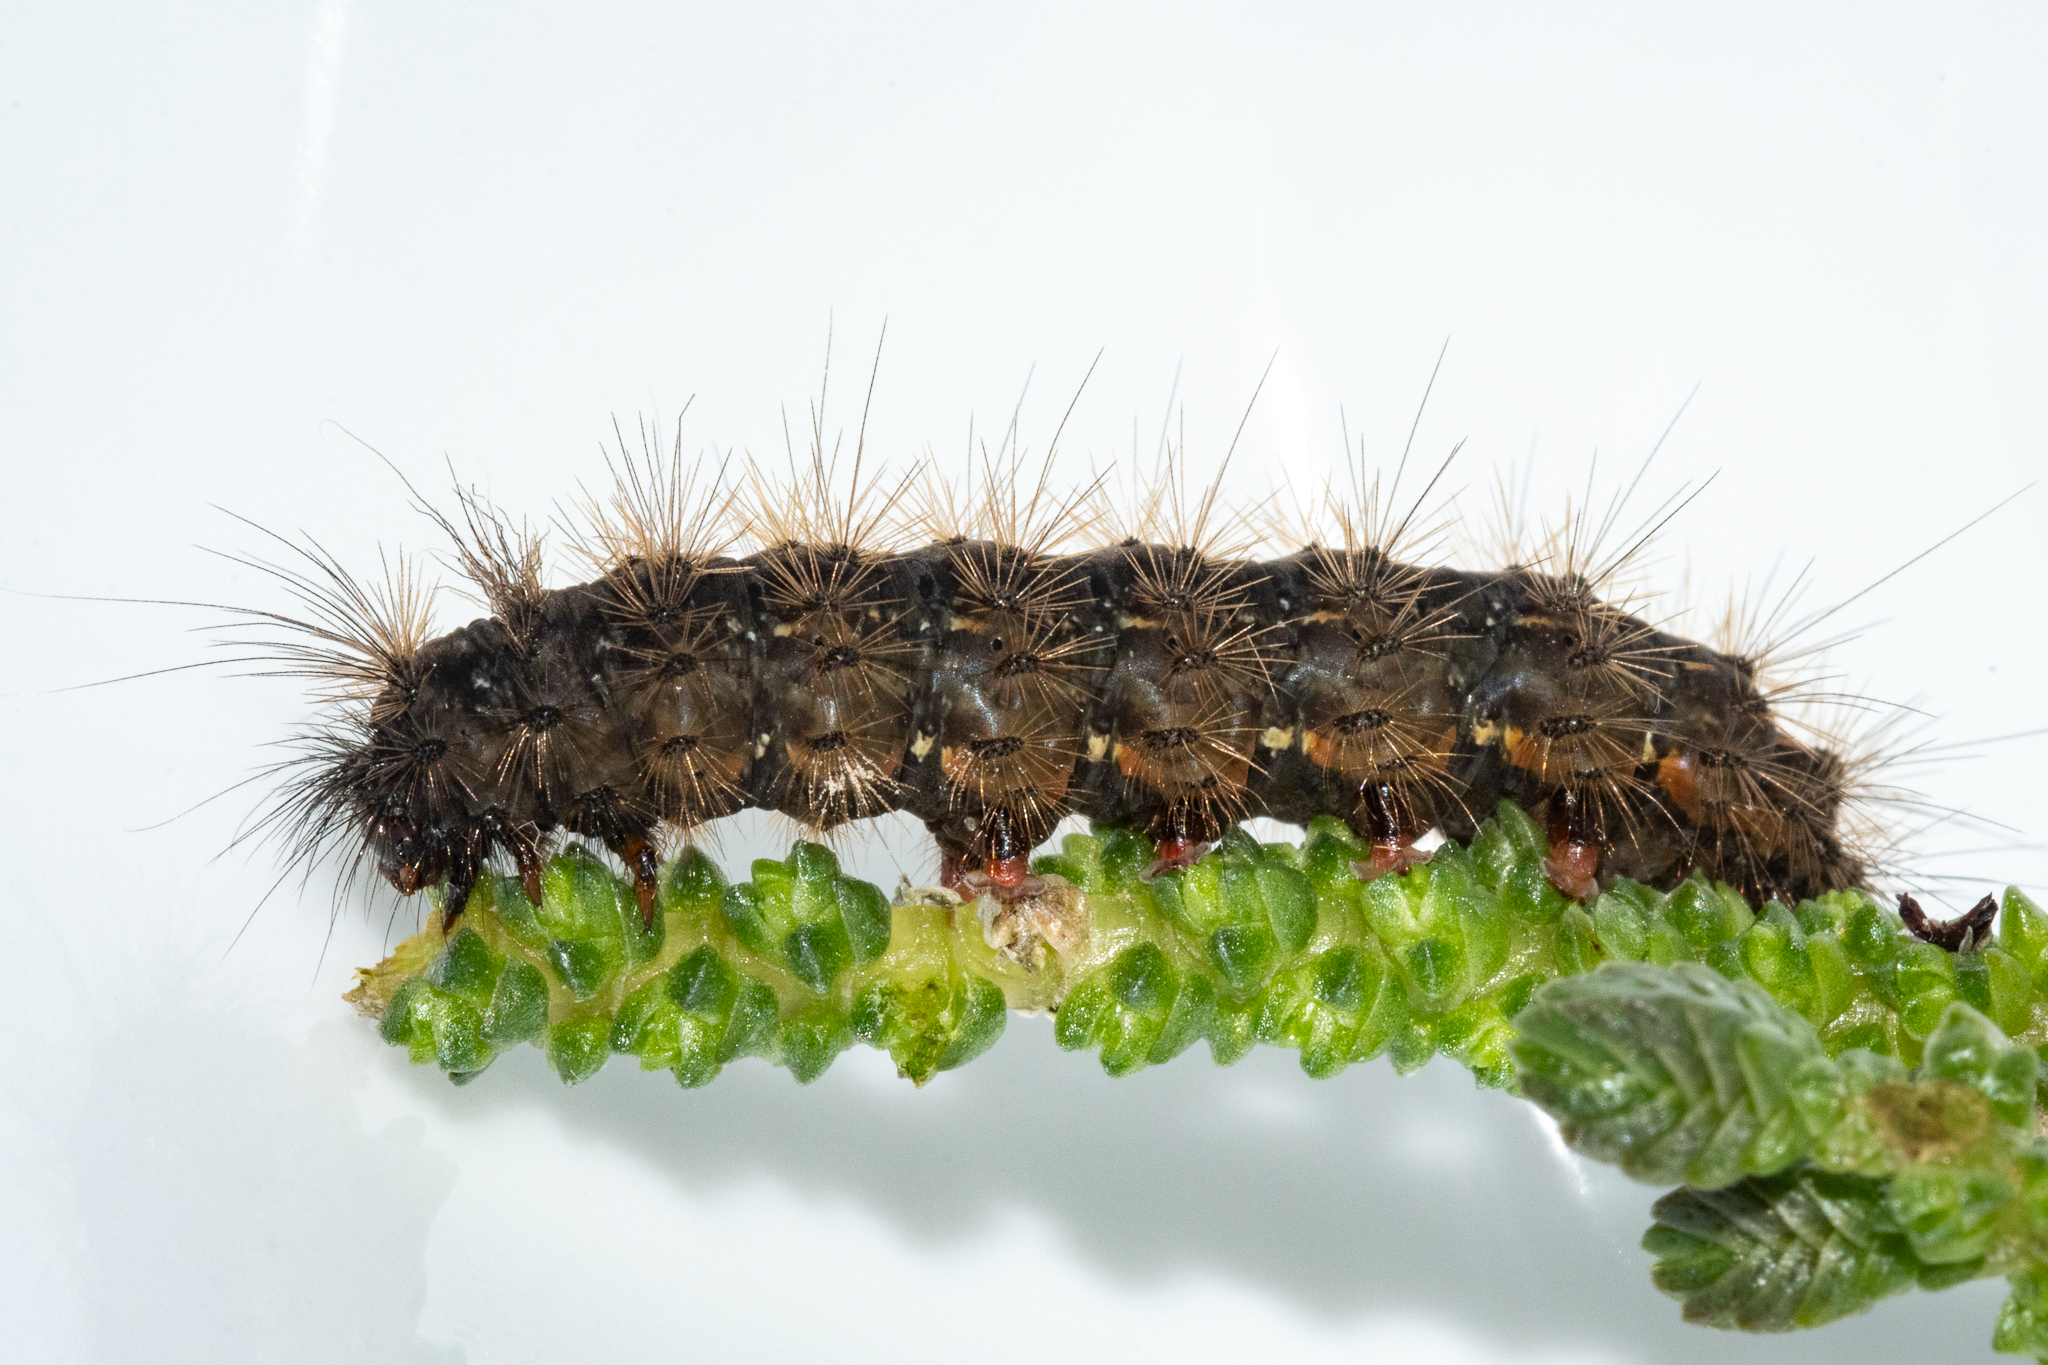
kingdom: Animalia
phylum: Arthropoda
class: Insecta
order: Lepidoptera
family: Erebidae
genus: Cymaroa
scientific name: Cymaroa grisea
